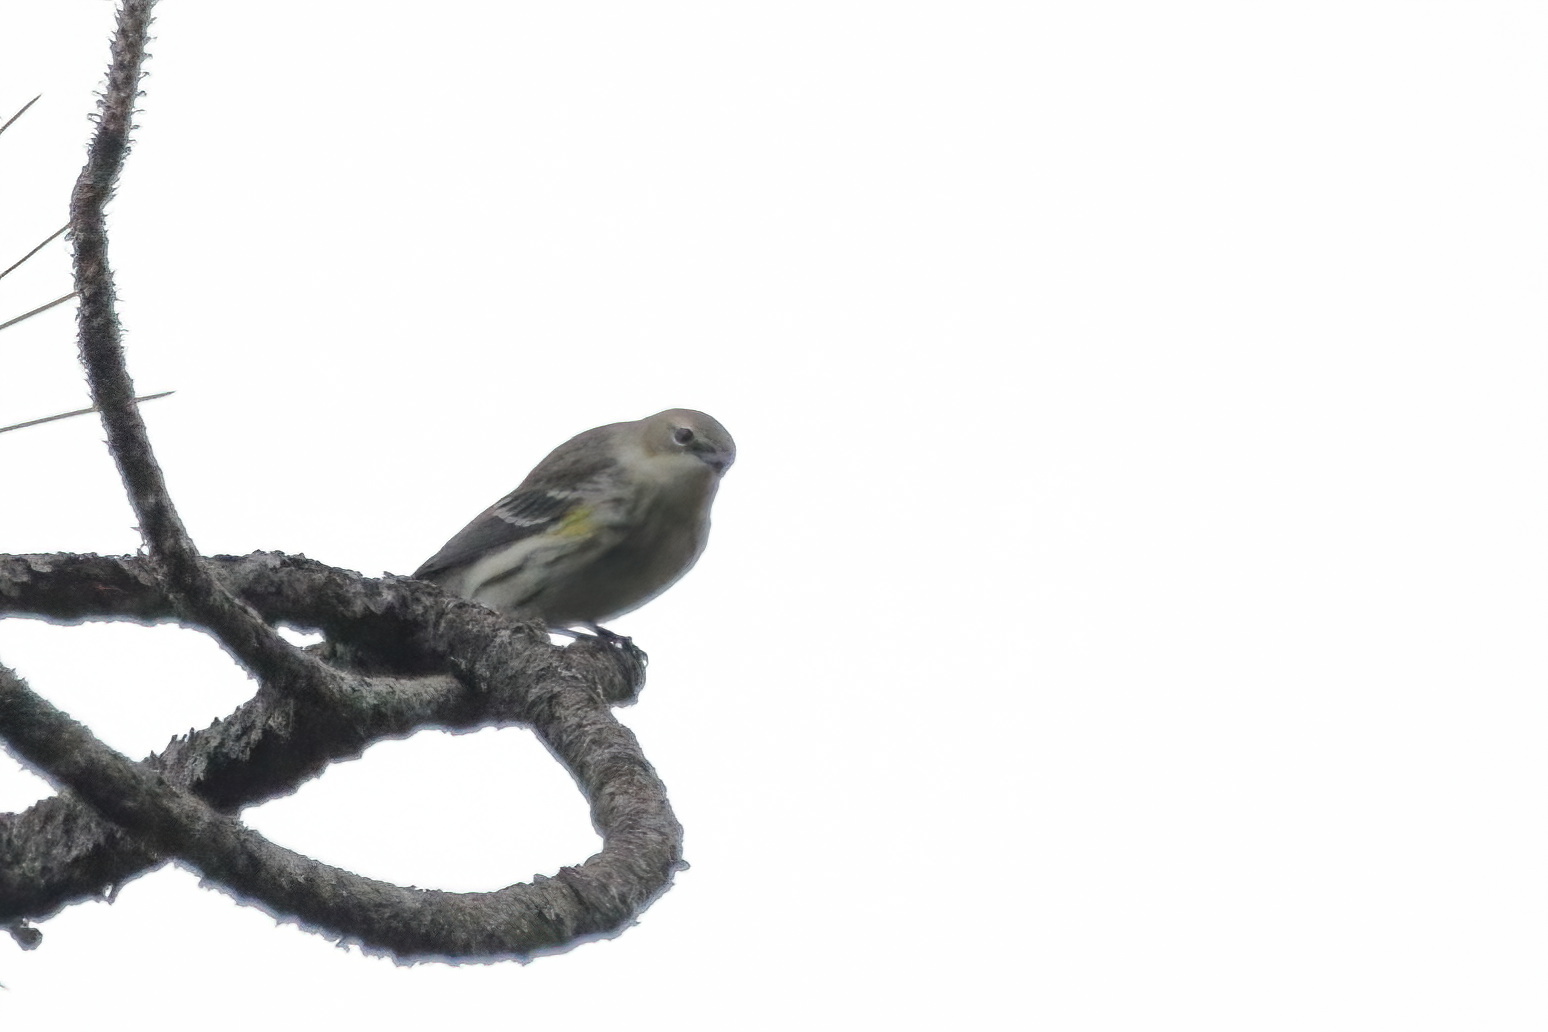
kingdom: Animalia
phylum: Chordata
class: Aves
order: Passeriformes
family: Parulidae
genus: Setophaga
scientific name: Setophaga coronata
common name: Myrtle warbler
